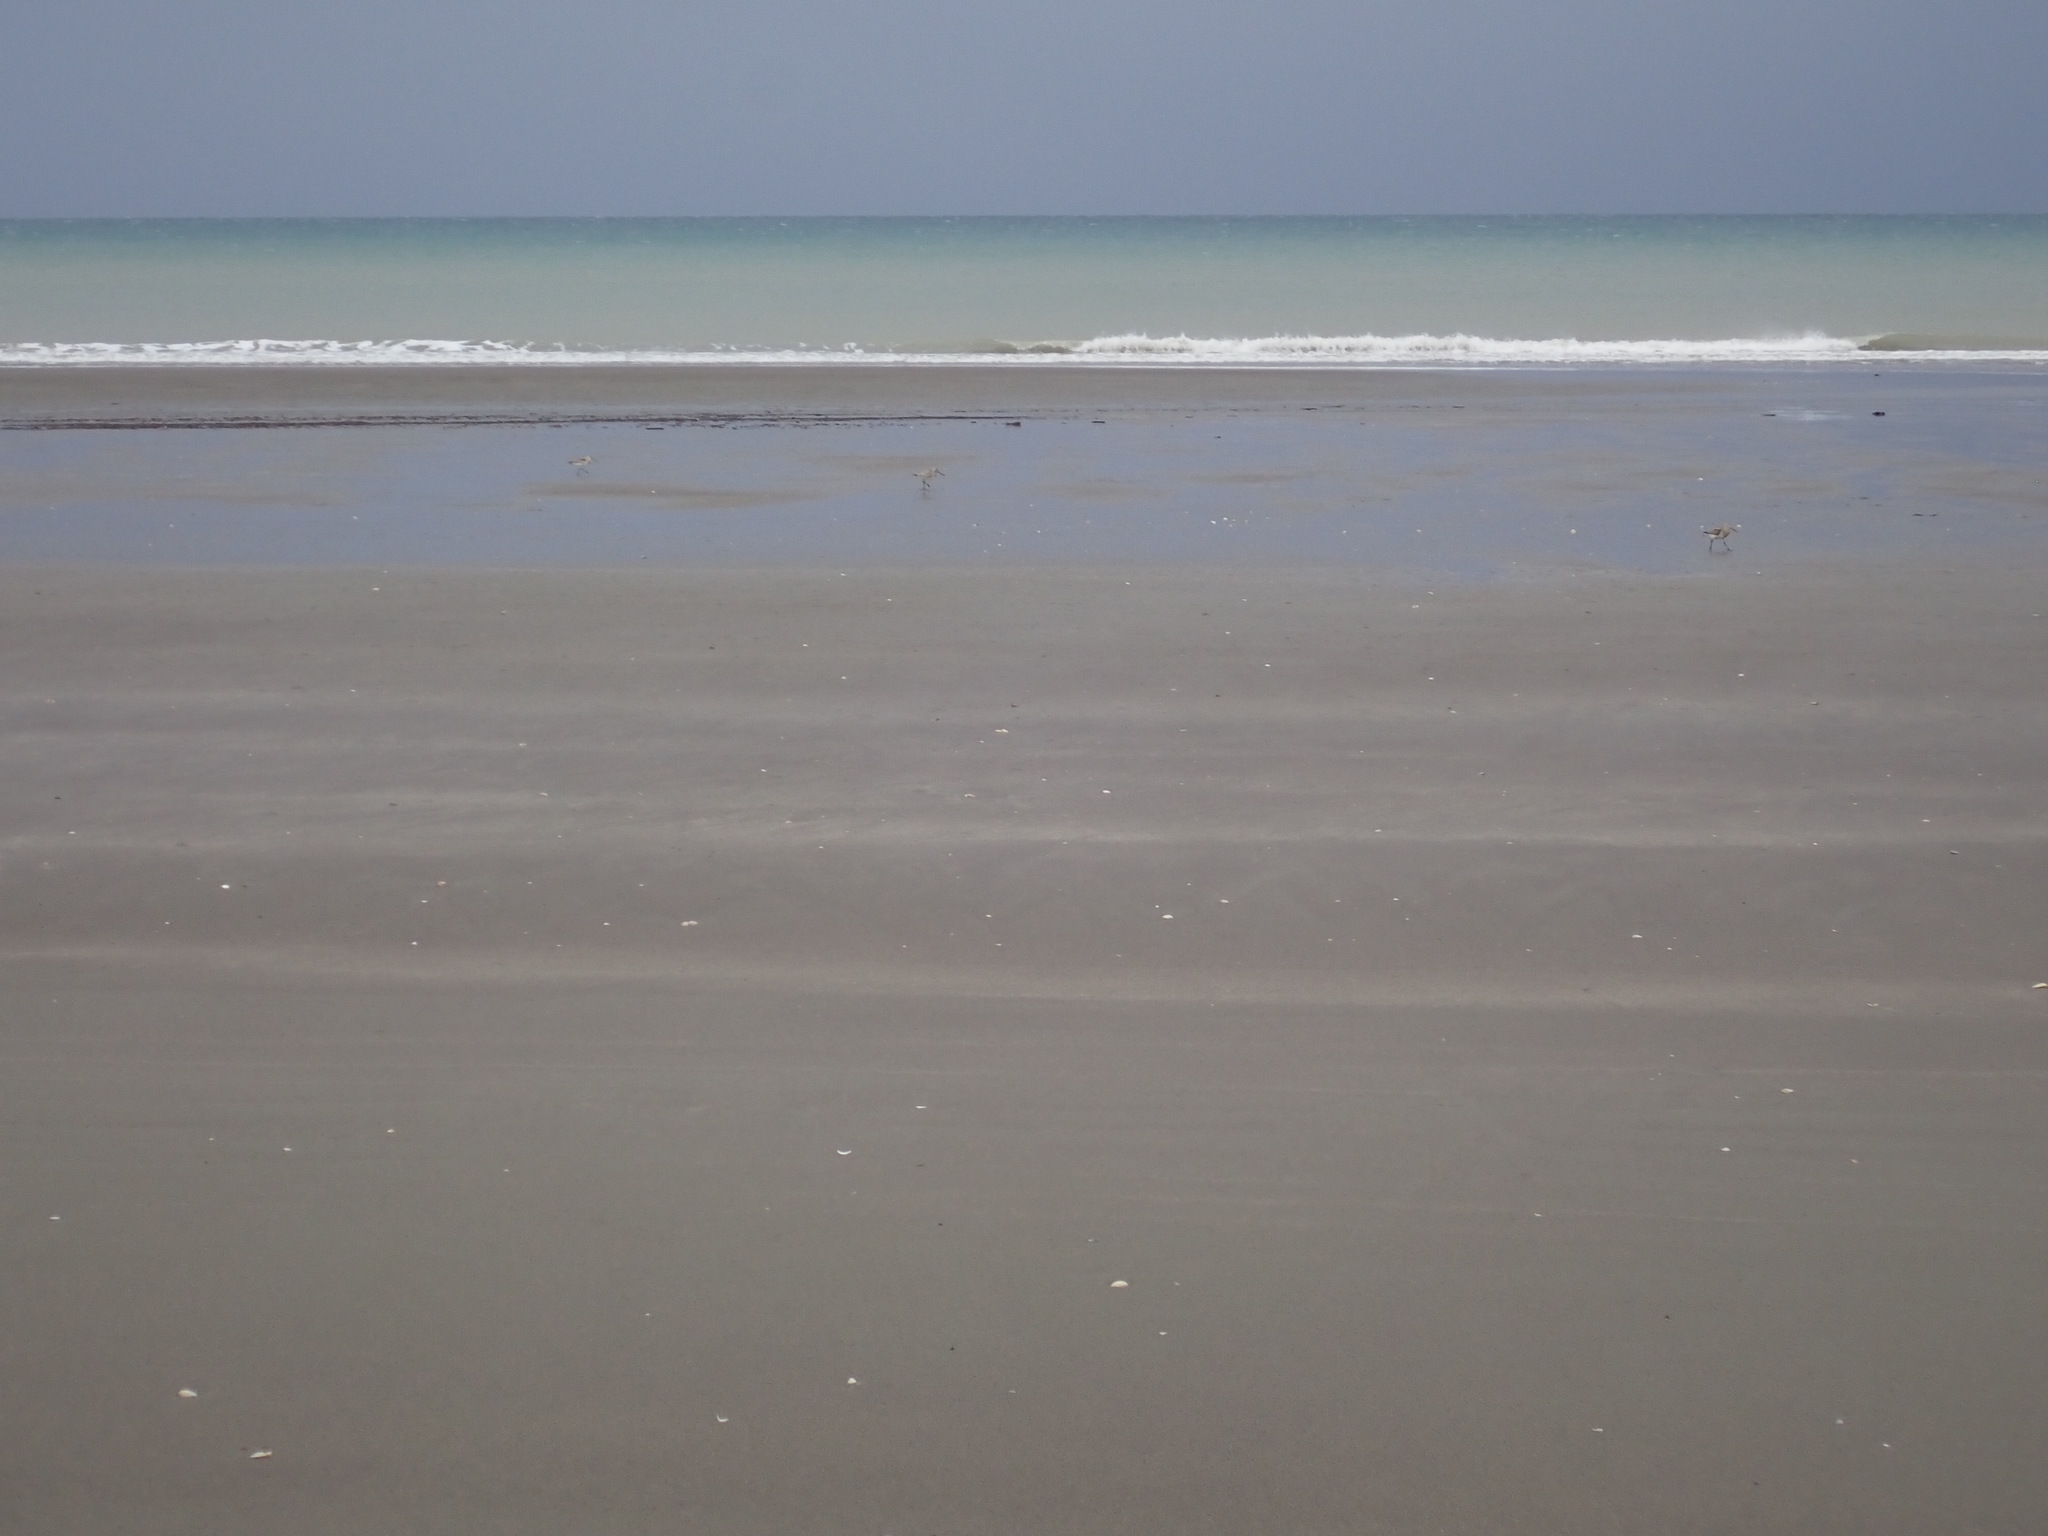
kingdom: Animalia
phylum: Chordata
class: Aves
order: Charadriiformes
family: Scolopacidae
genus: Limosa
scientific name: Limosa lapponica
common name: Bar-tailed godwit
